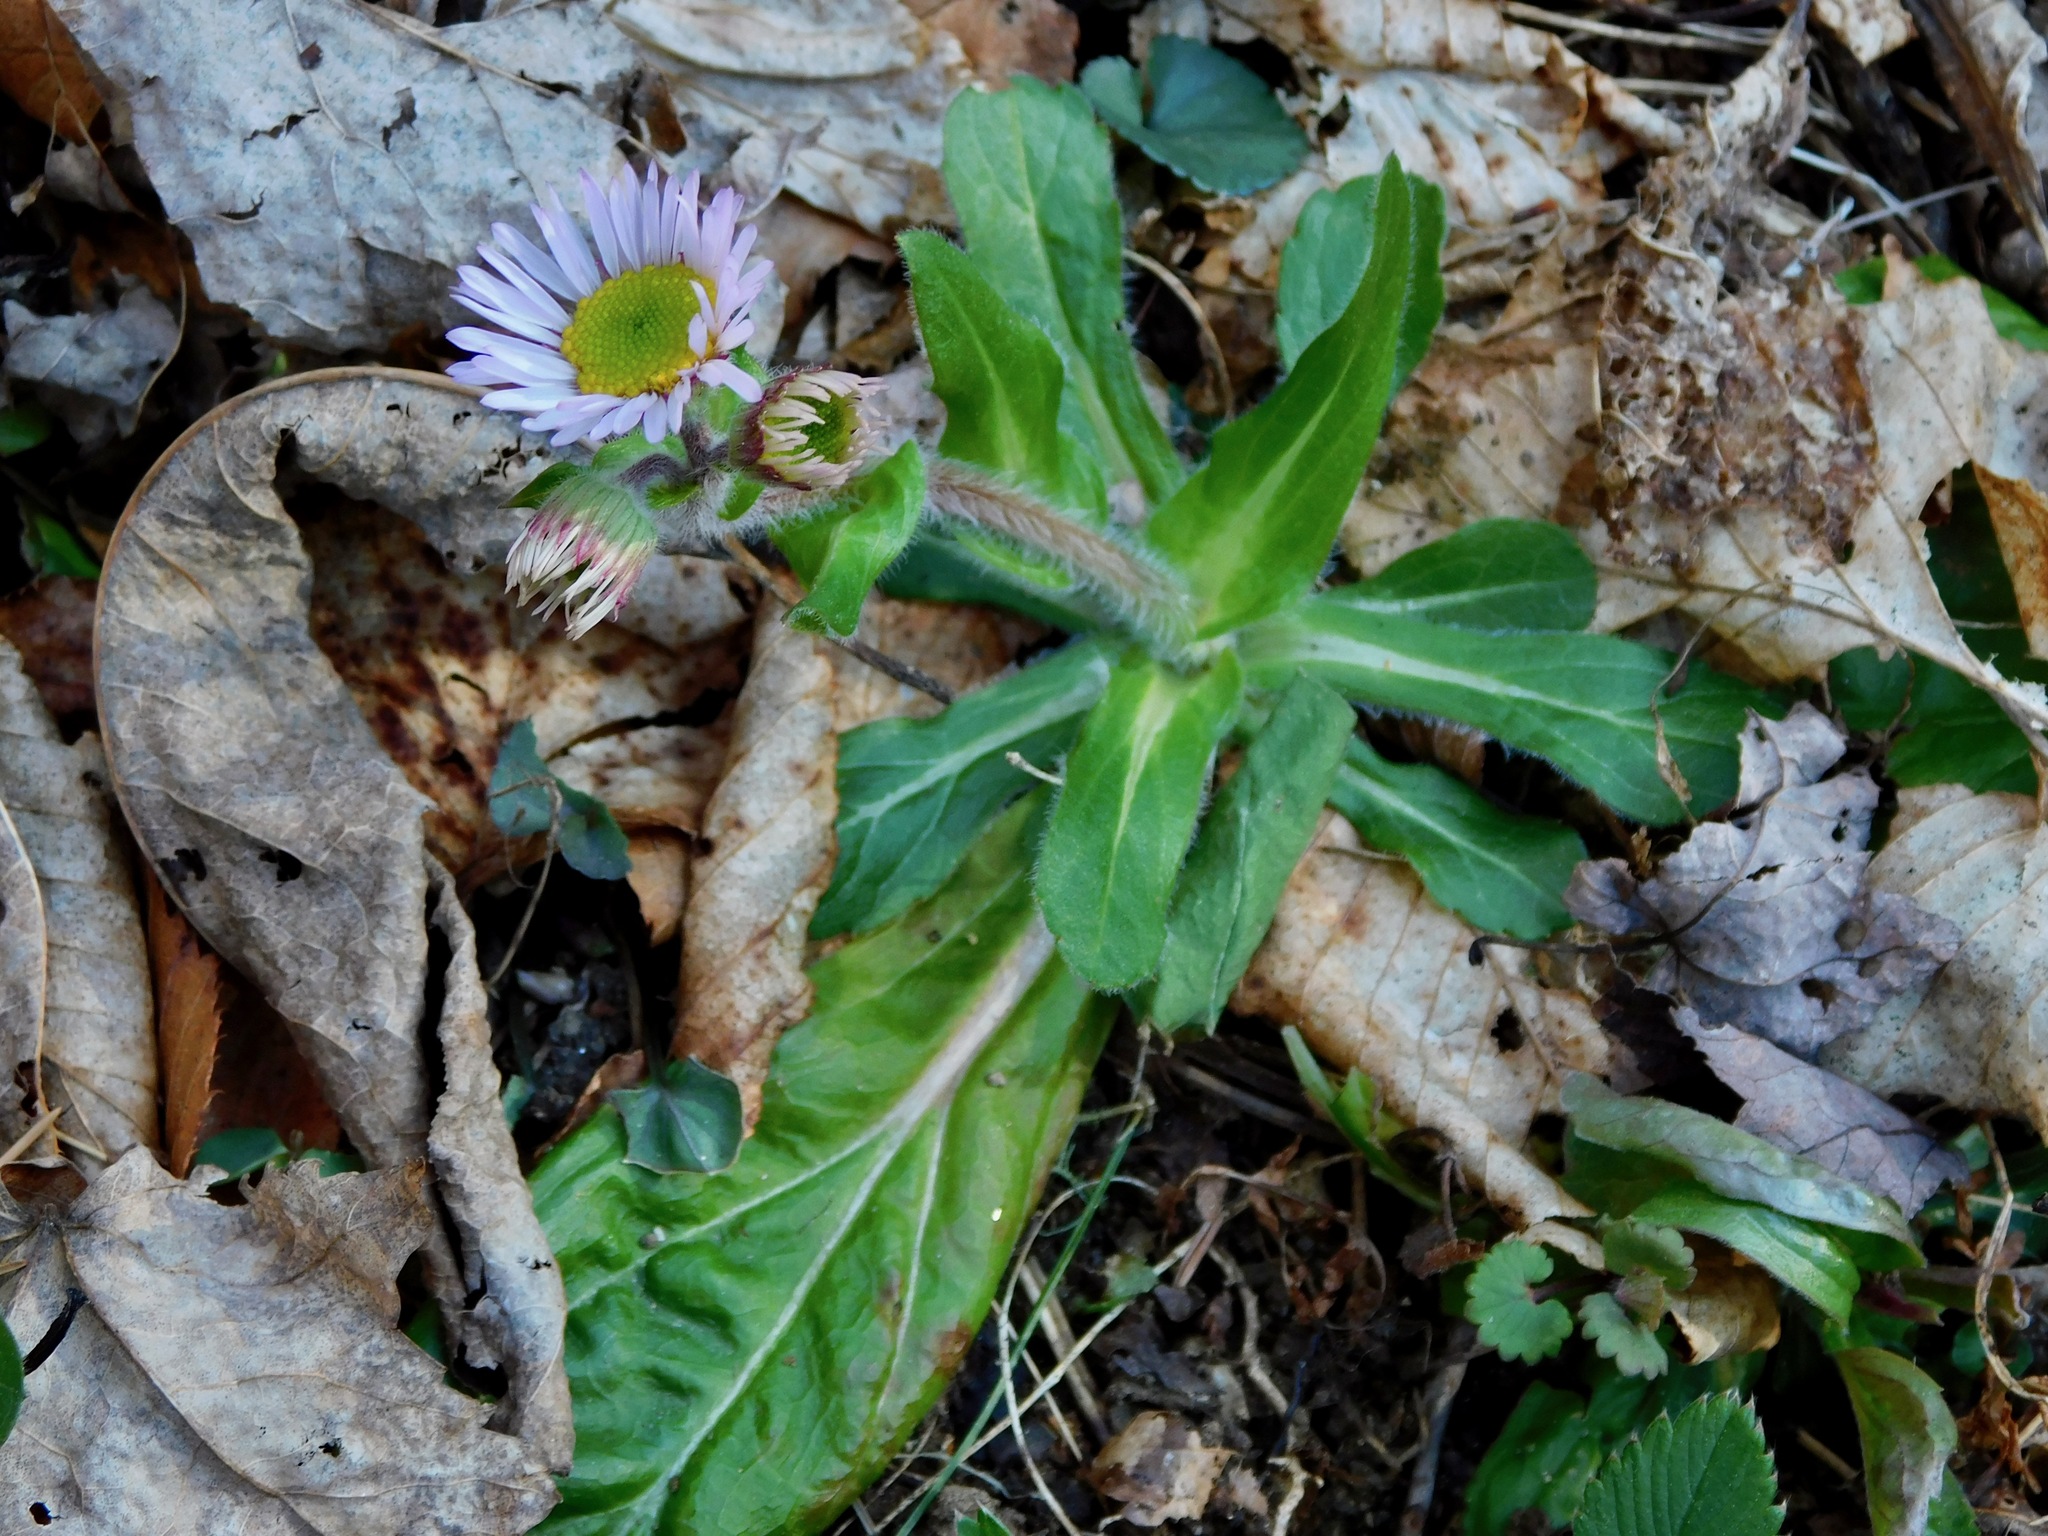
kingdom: Plantae
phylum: Tracheophyta
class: Magnoliopsida
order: Asterales
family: Asteraceae
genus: Erigeron
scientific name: Erigeron pulchellus
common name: Hairy fleabane
